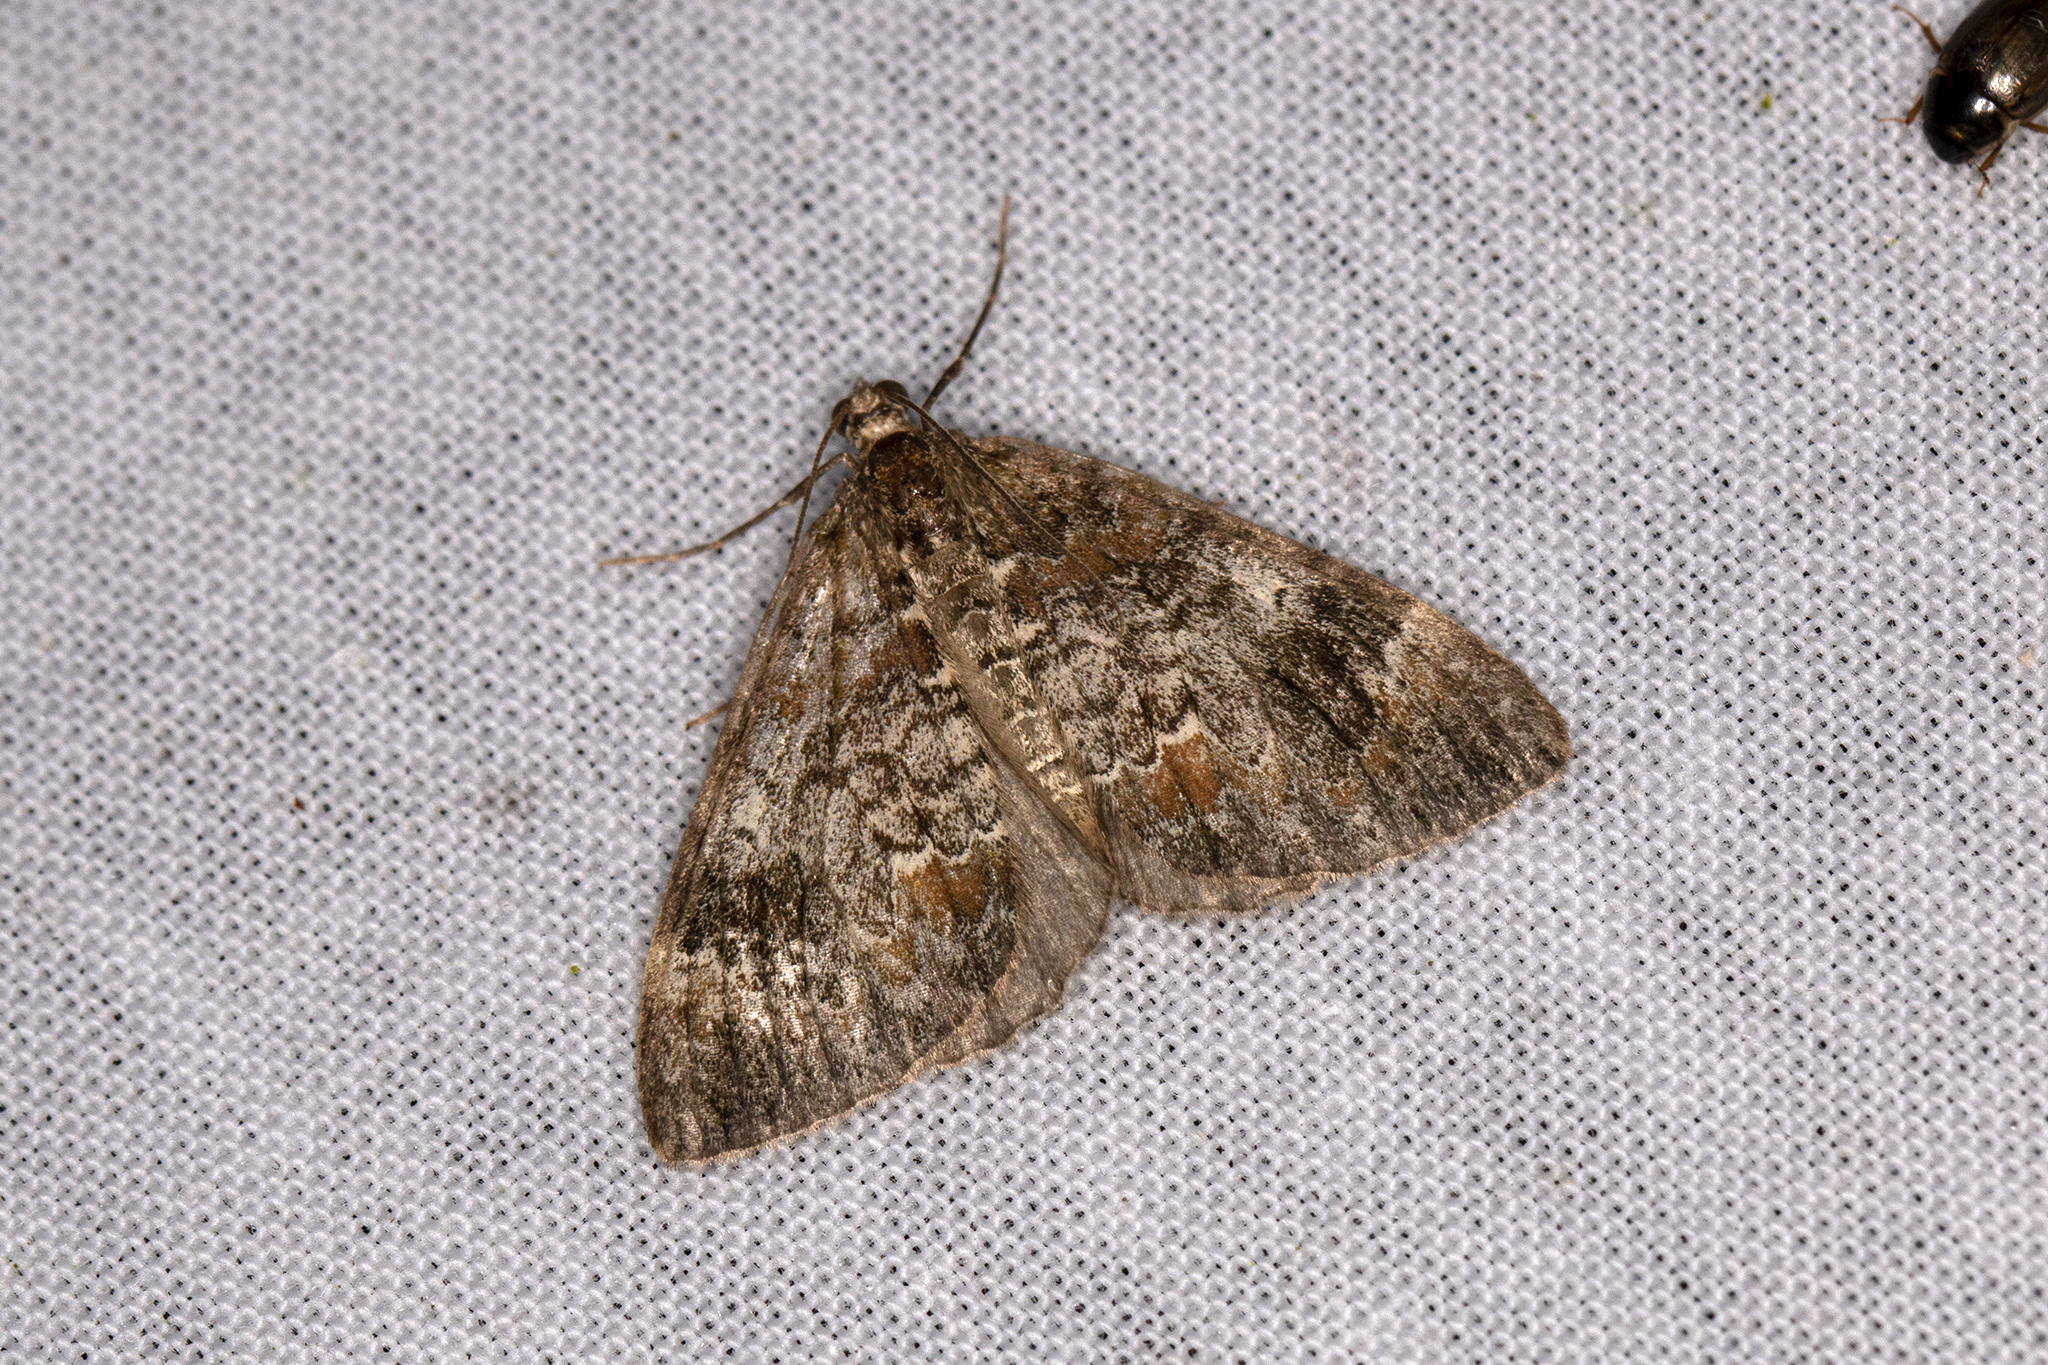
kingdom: Animalia
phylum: Arthropoda
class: Insecta
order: Lepidoptera
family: Geometridae
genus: Dysstroma
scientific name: Dysstroma truncata
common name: Common marbled carpet
